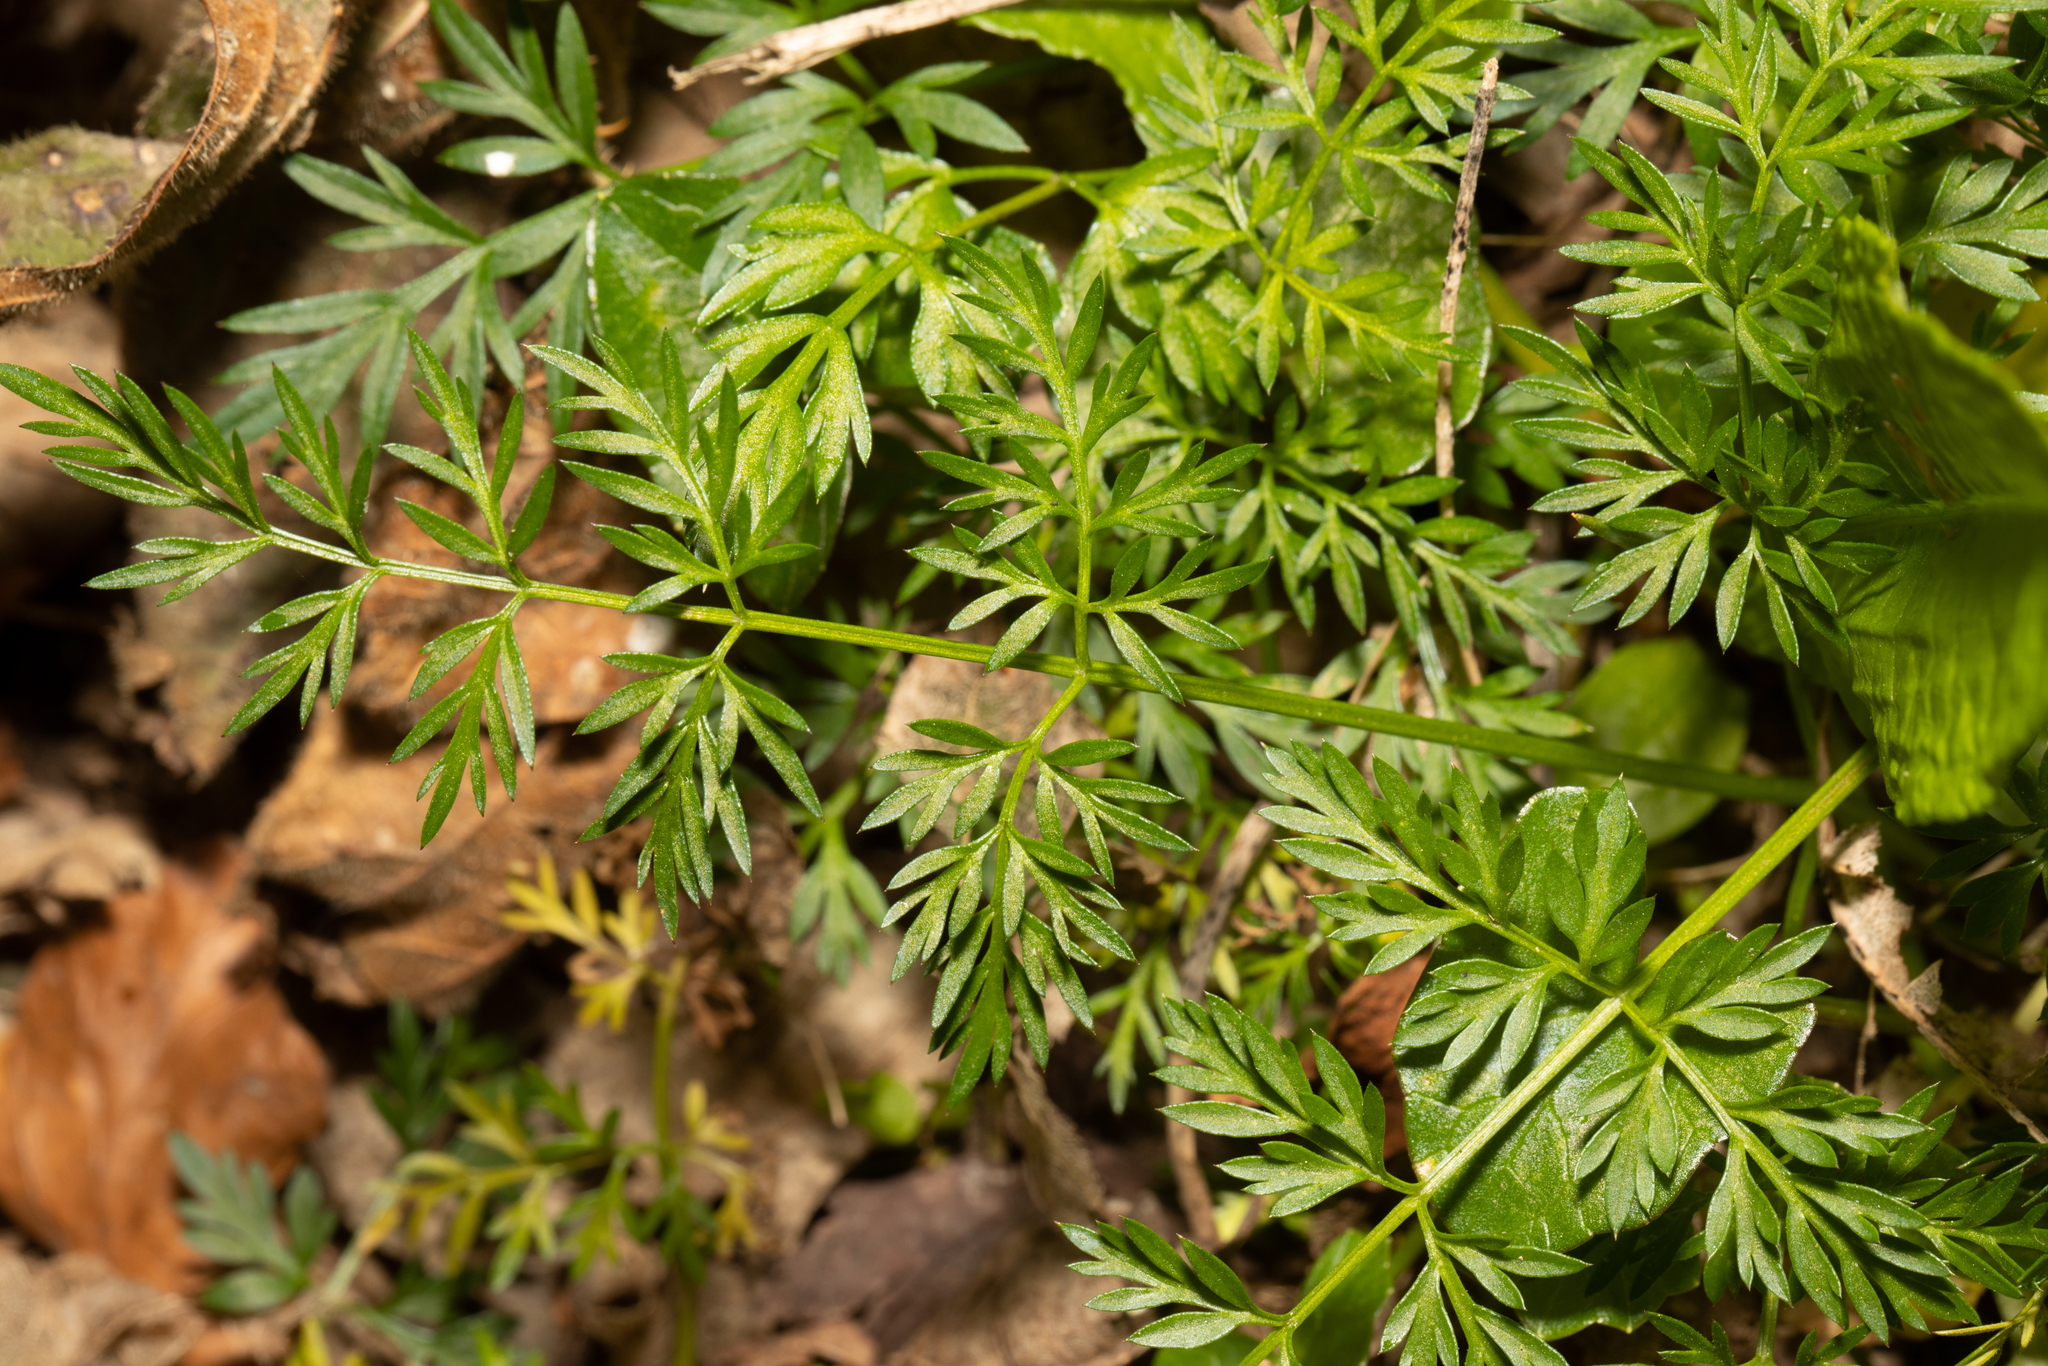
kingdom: Plantae
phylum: Tracheophyta
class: Magnoliopsida
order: Apiales
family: Apiaceae
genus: Conopodium
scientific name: Conopodium majus
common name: Pignut
